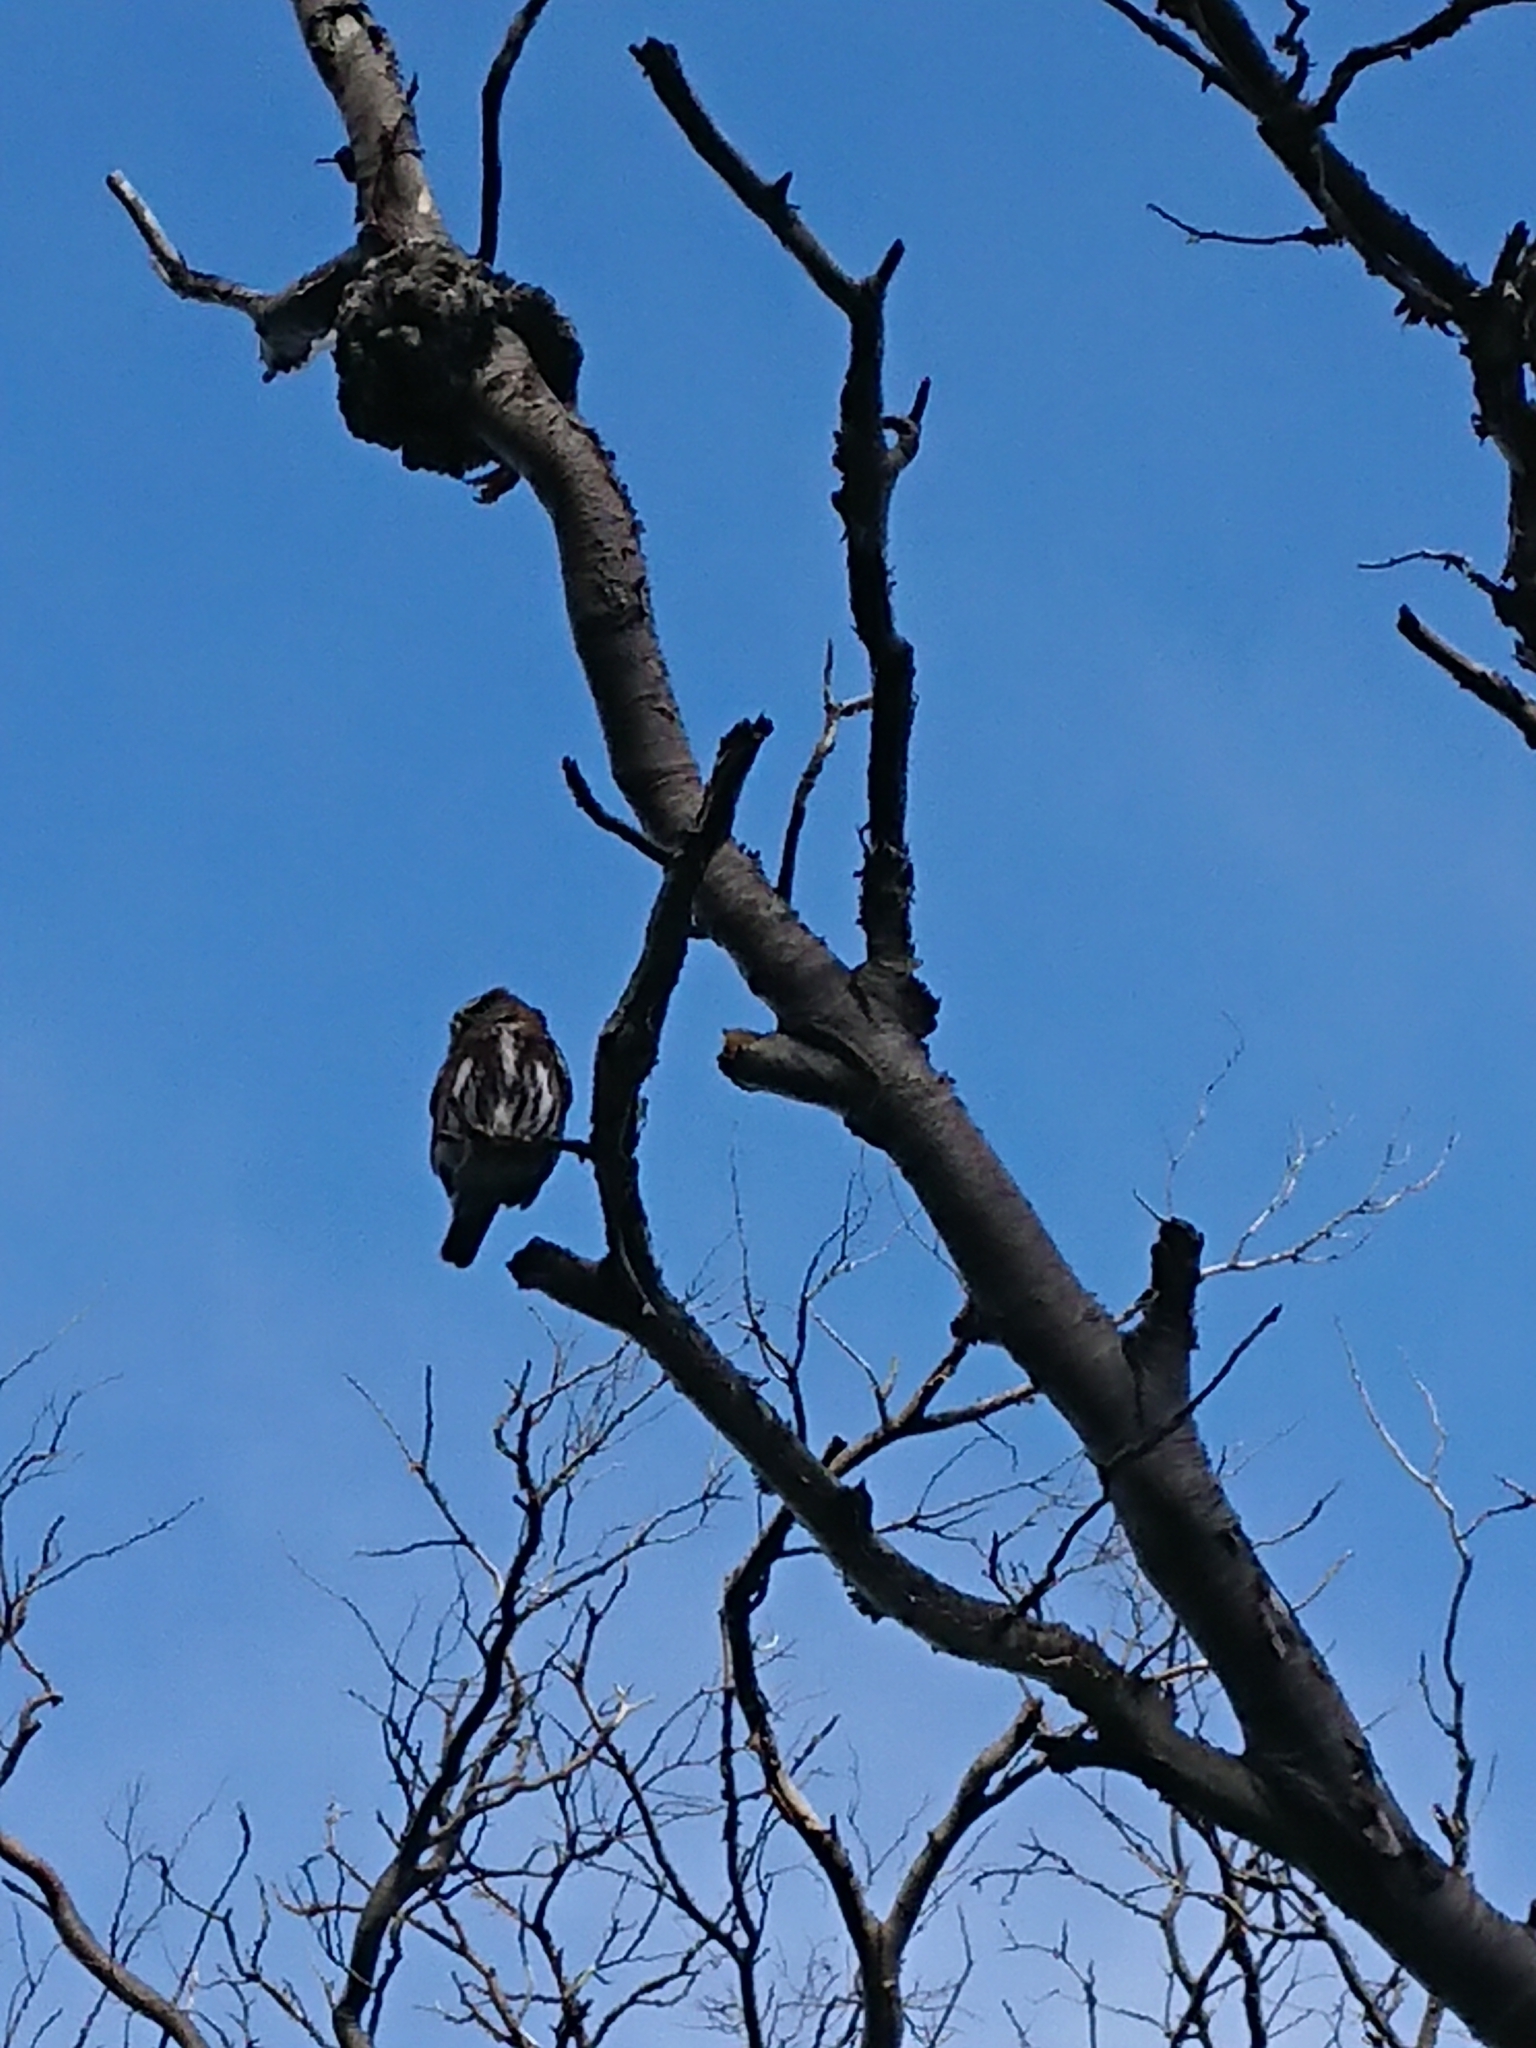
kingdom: Animalia
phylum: Chordata
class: Aves
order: Strigiformes
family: Strigidae
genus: Glaucidium
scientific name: Glaucidium nana
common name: Austral pygmy-owl
